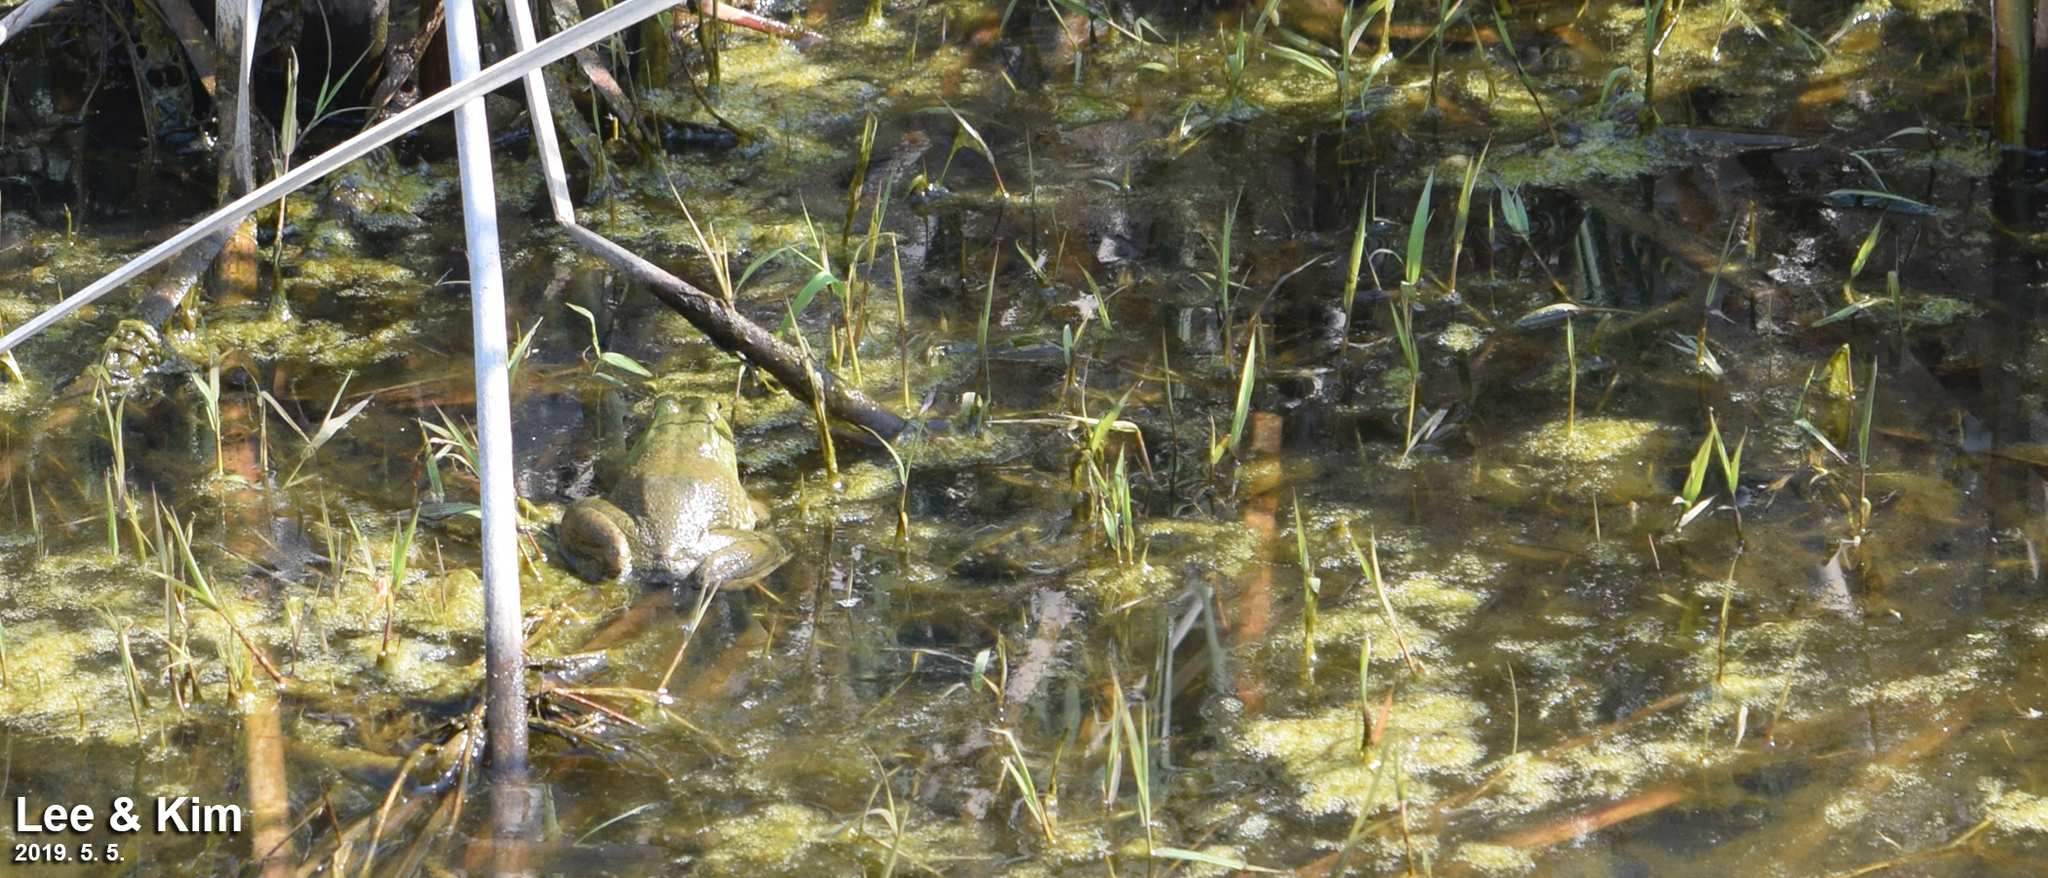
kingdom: Animalia
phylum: Chordata
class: Amphibia
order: Anura
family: Ranidae
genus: Lithobates
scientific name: Lithobates catesbeianus
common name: American bullfrog
